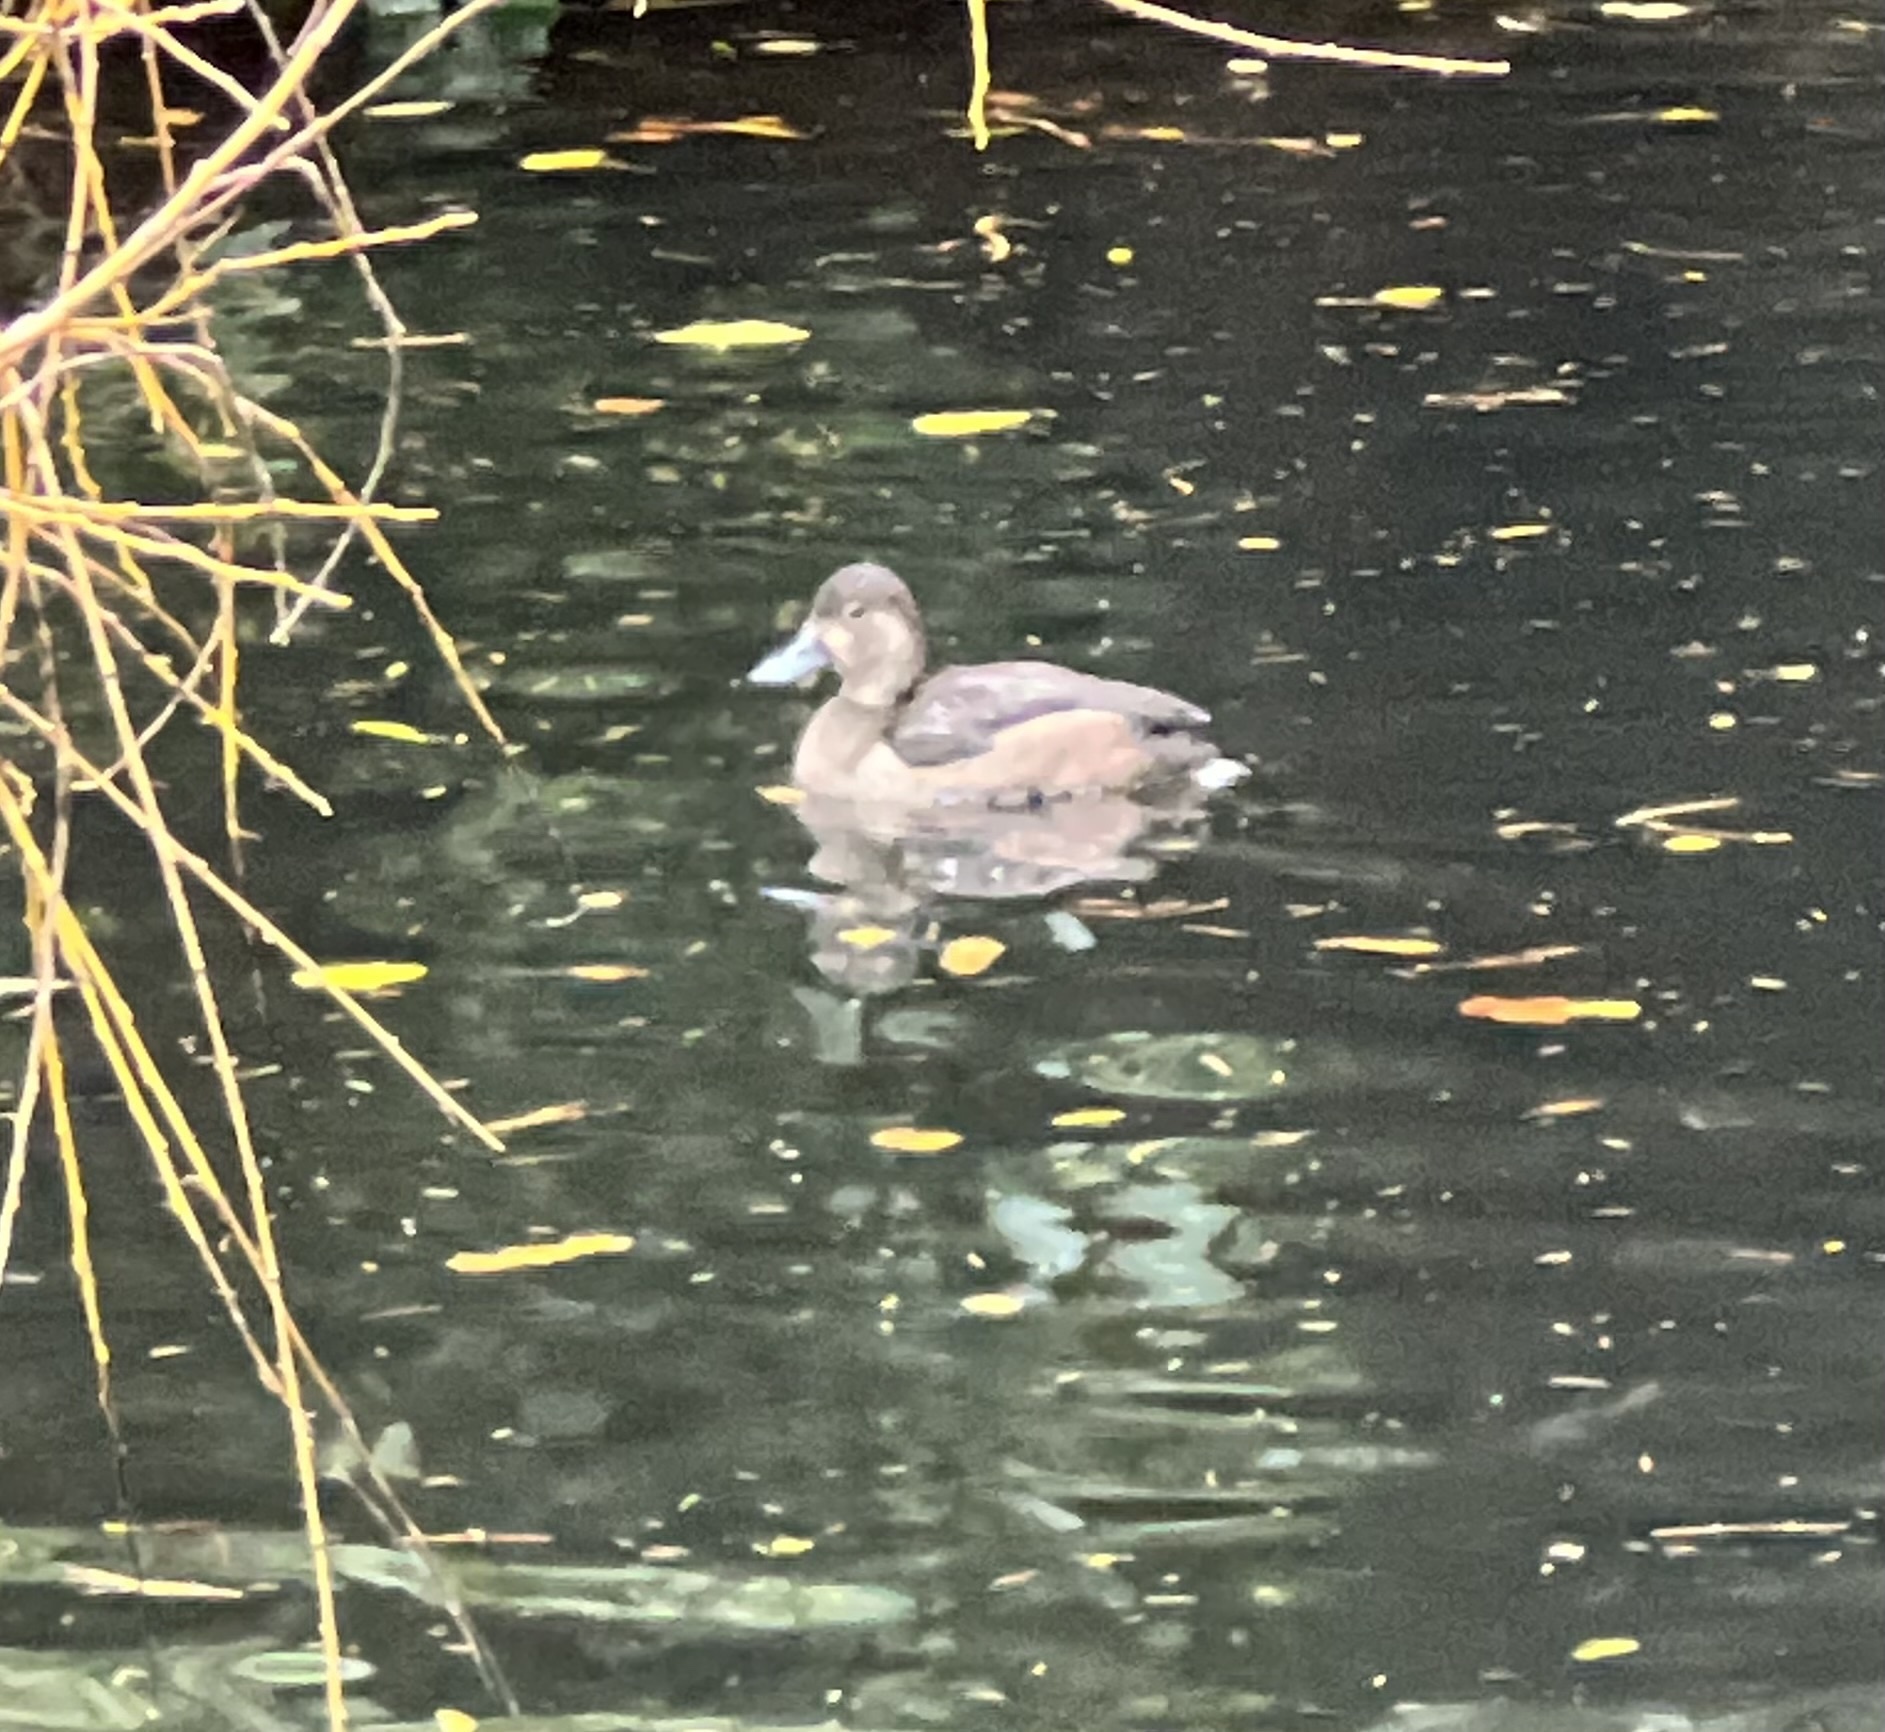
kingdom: Animalia
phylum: Chordata
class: Aves
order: Anseriformes
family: Anatidae
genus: Aythya
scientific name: Aythya collaris
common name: Ring-necked duck
